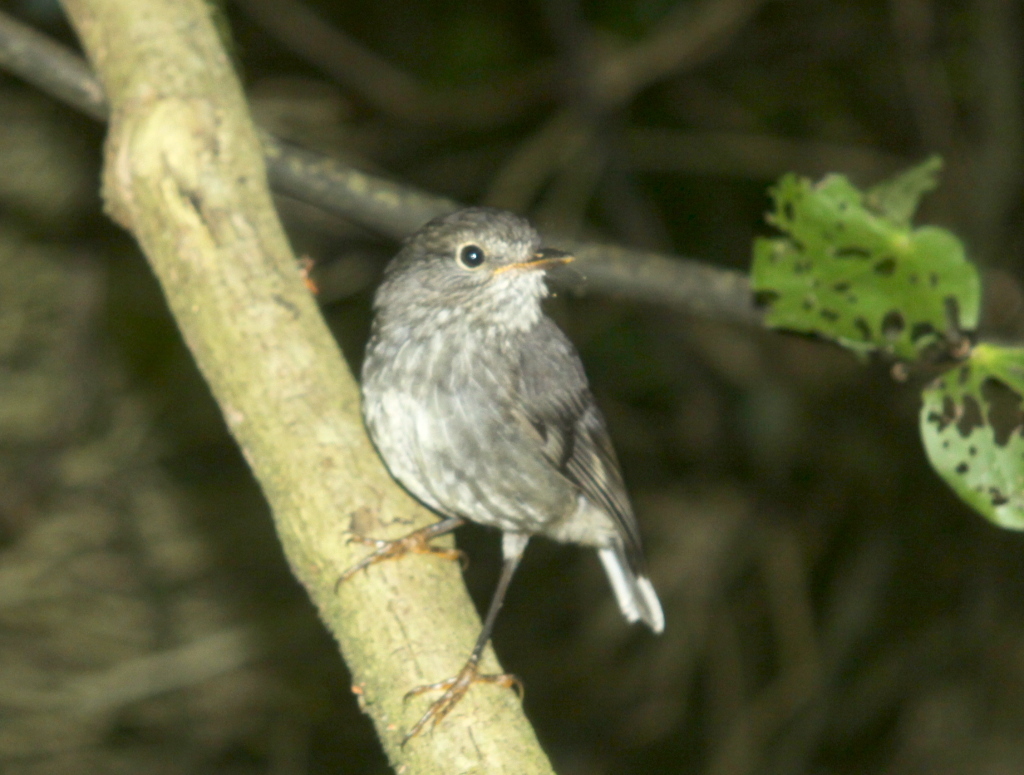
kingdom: Animalia
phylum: Chordata
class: Aves
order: Passeriformes
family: Petroicidae
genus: Petroica
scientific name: Petroica australis
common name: New zealand robin
